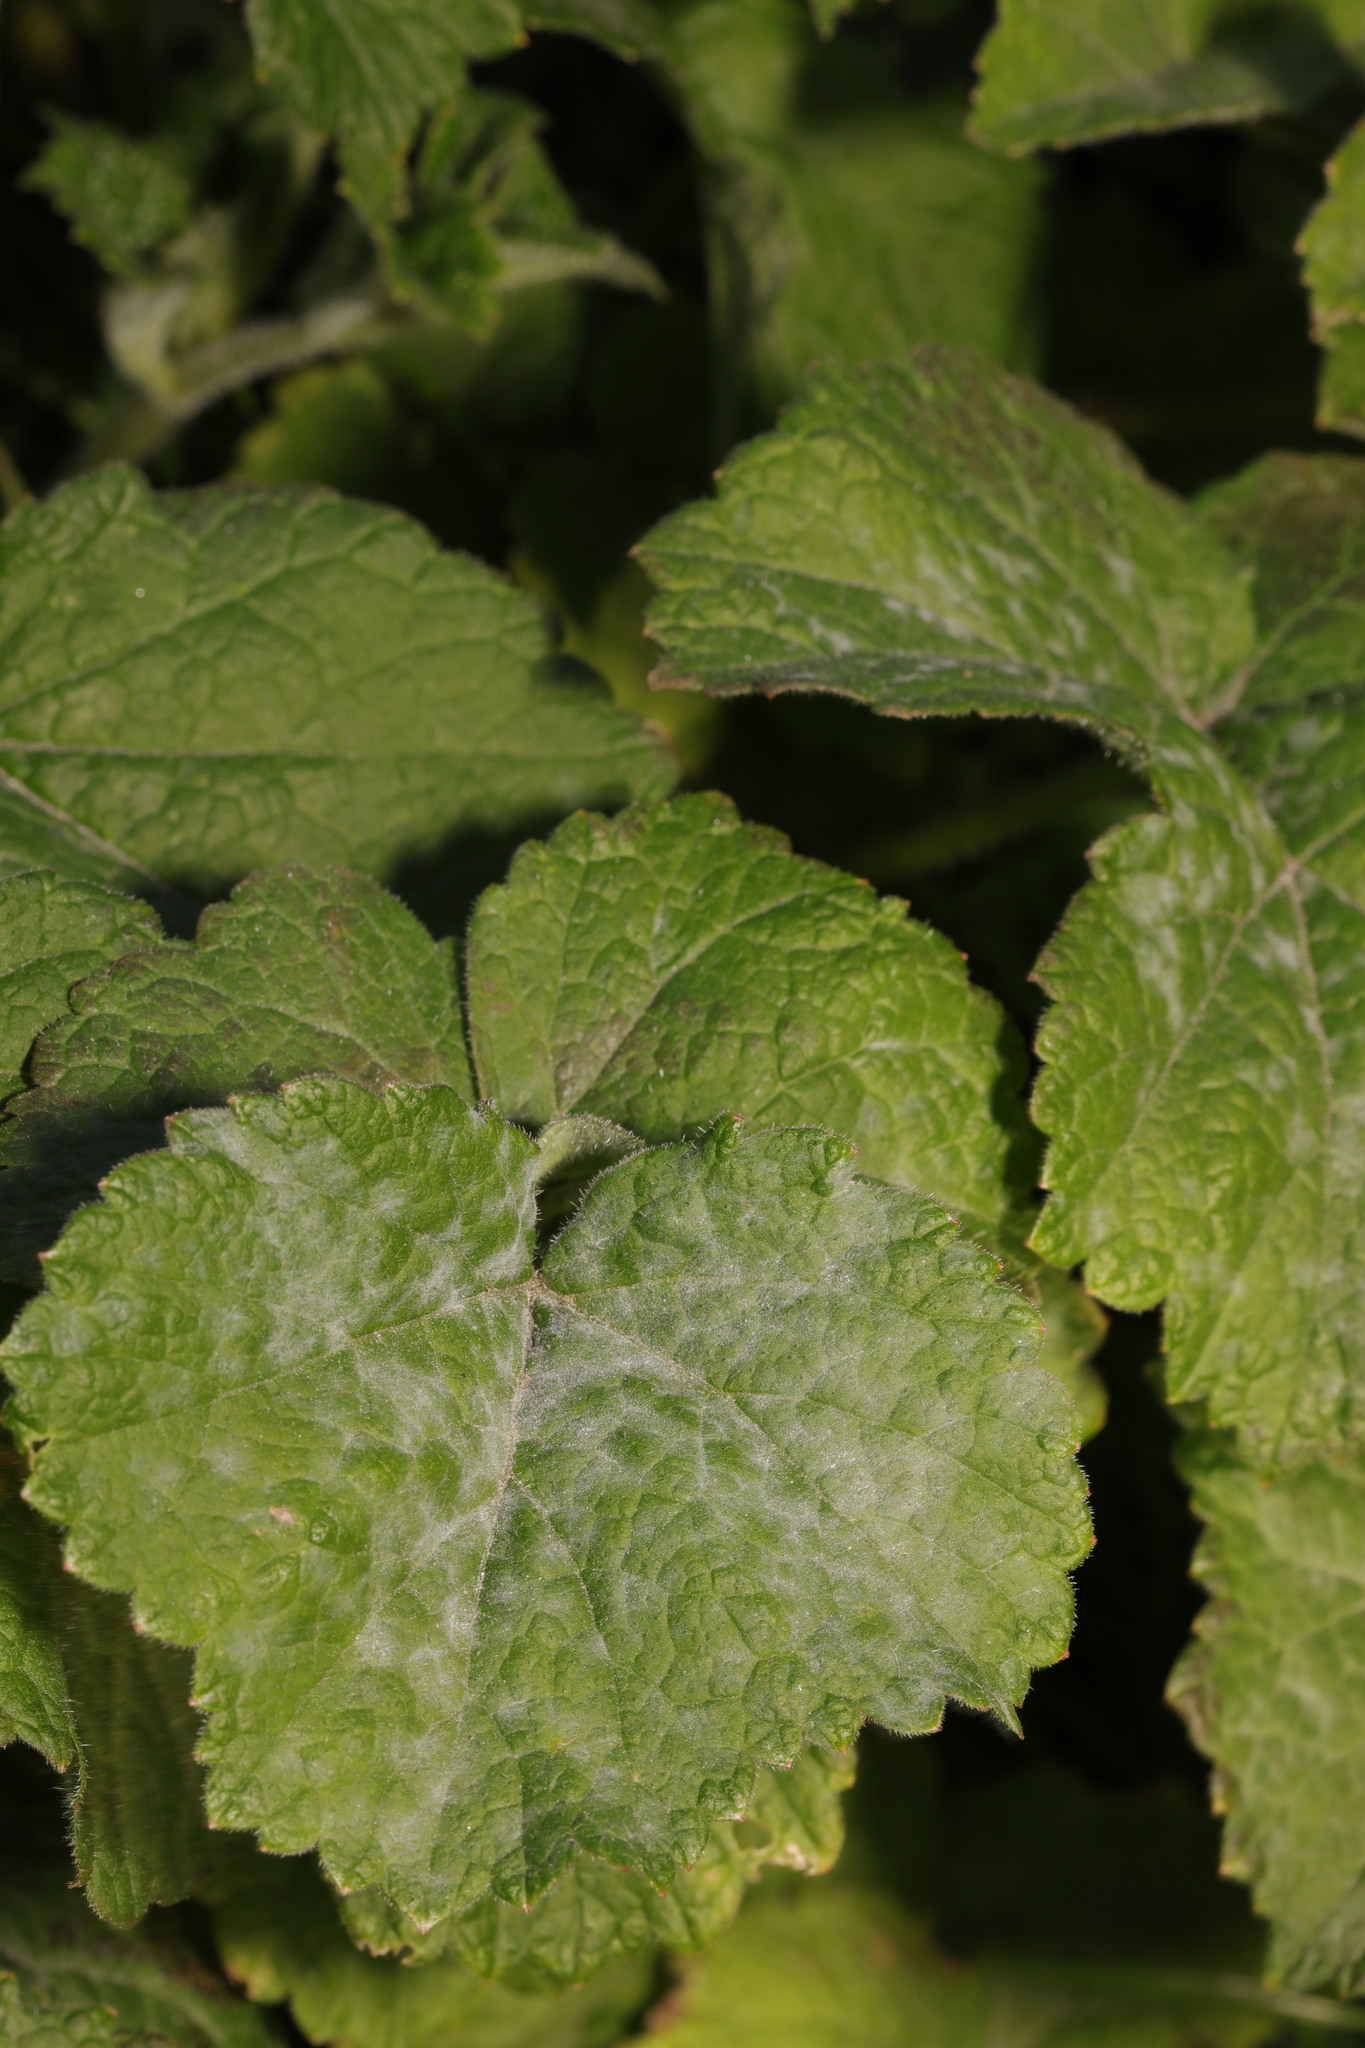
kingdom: Fungi
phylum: Ascomycota
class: Leotiomycetes
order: Helotiales
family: Erysiphaceae
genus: Erysiphe
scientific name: Erysiphe heraclei
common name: Umbellifer mildew
